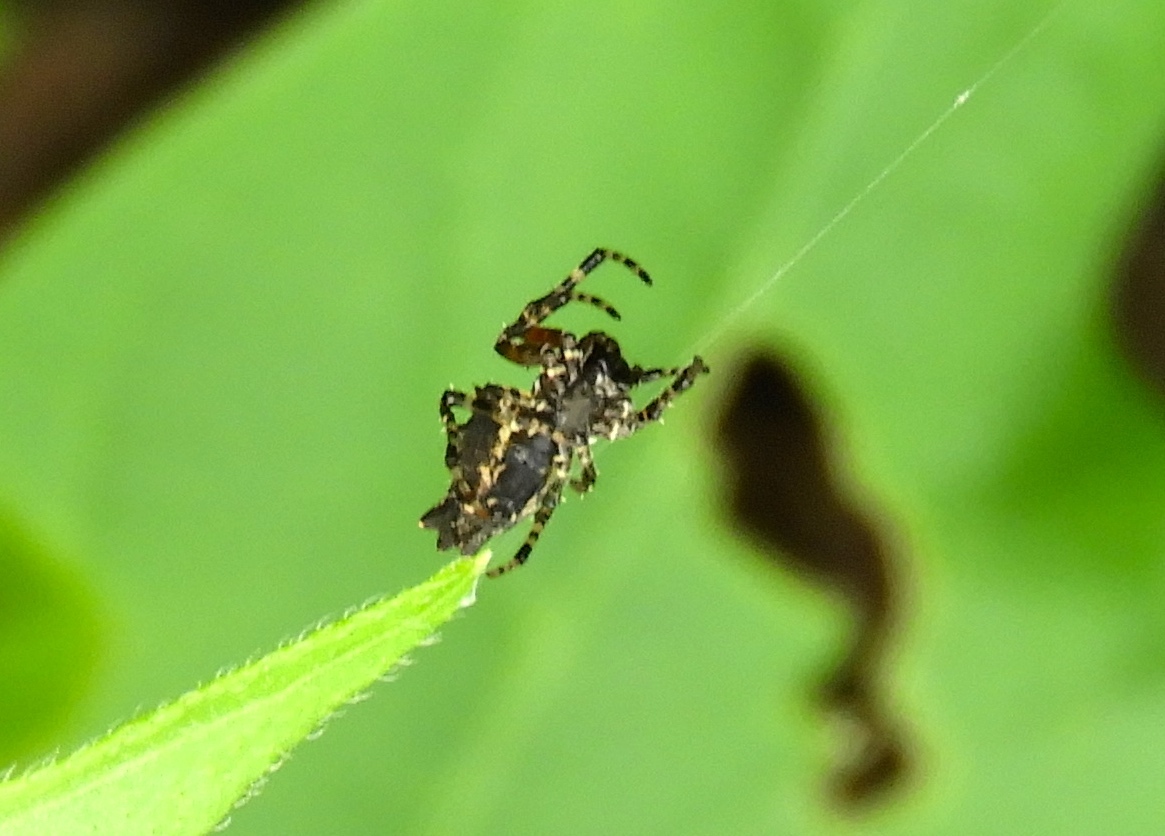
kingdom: Animalia
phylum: Arthropoda
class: Arachnida
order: Araneae
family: Araneidae
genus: Wagneriana
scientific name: Wagneriana
